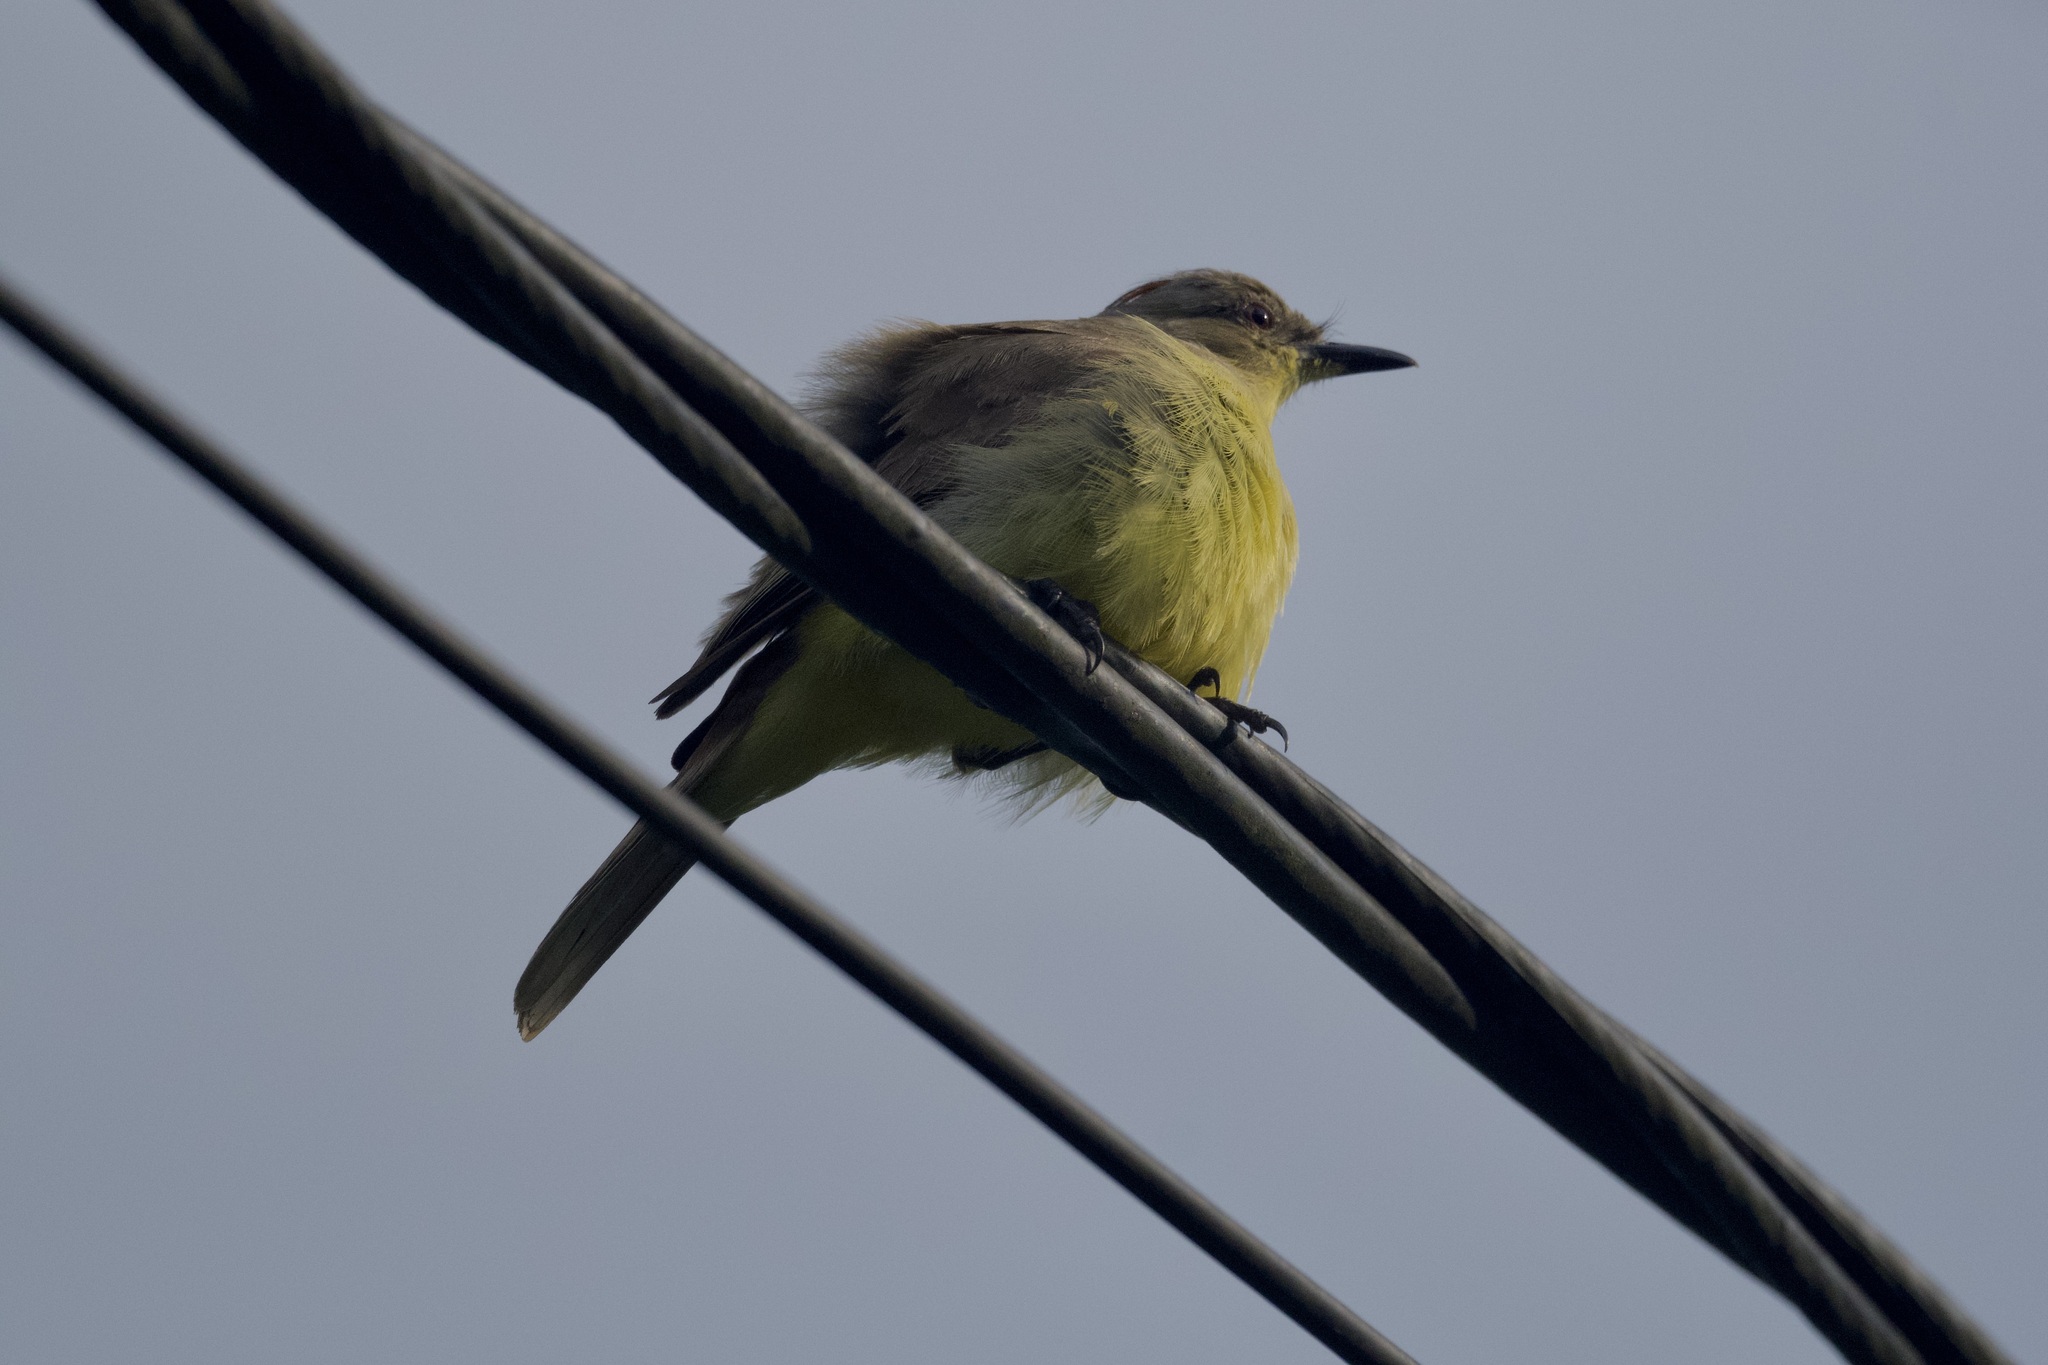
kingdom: Animalia
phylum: Chordata
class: Aves
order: Passeriformes
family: Tyrannidae
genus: Machetornis
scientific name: Machetornis rixosa
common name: Cattle tyrant
